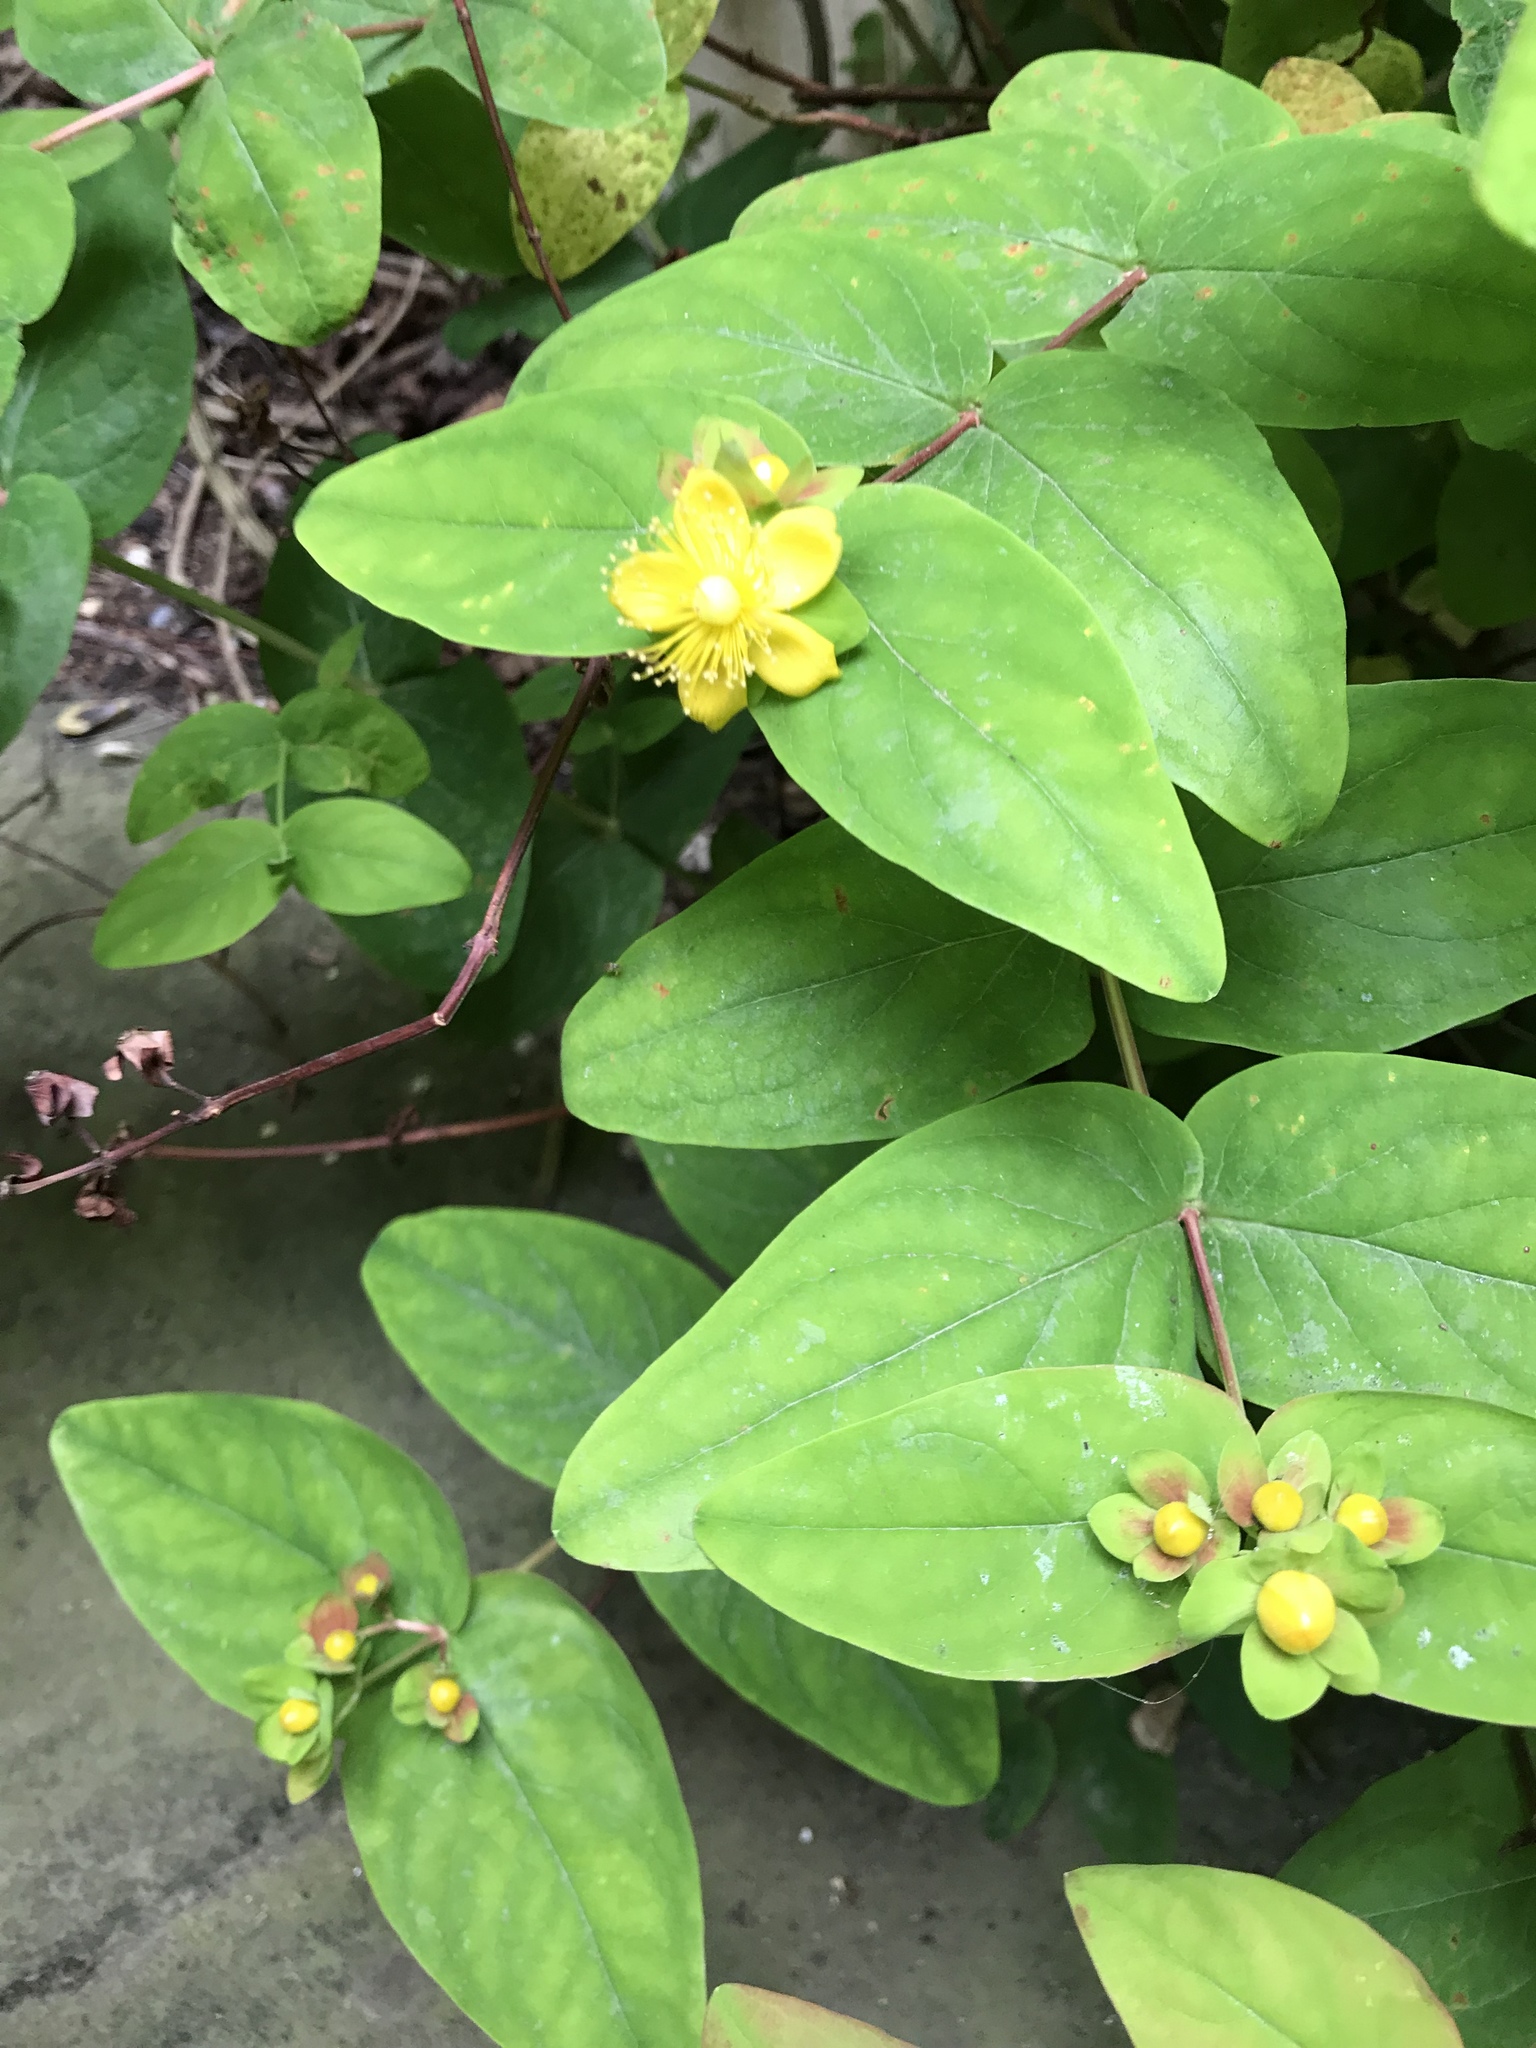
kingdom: Plantae
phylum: Tracheophyta
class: Magnoliopsida
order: Malpighiales
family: Hypericaceae
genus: Hypericum
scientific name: Hypericum androsaemum
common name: Sweet-amber
